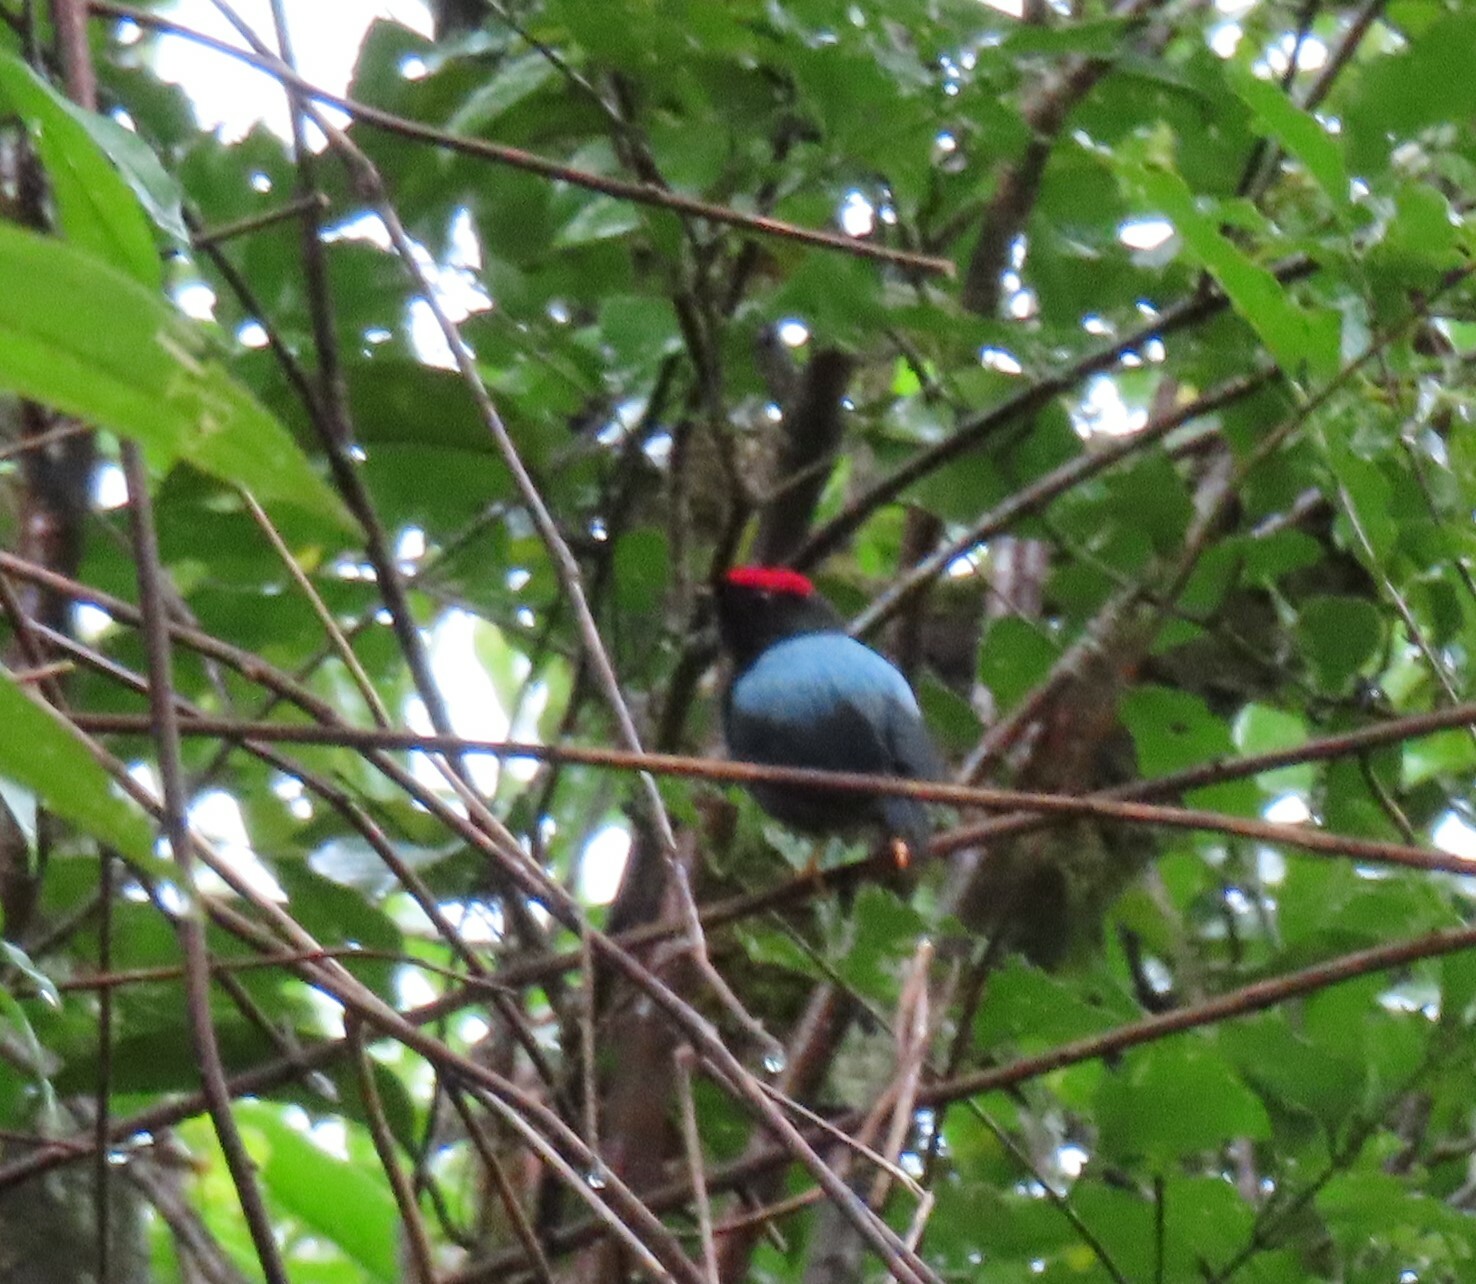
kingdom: Animalia
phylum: Chordata
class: Aves
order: Passeriformes
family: Pipridae
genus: Chiroxiphia
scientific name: Chiroxiphia lanceolata
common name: Lance-tailed manakin
